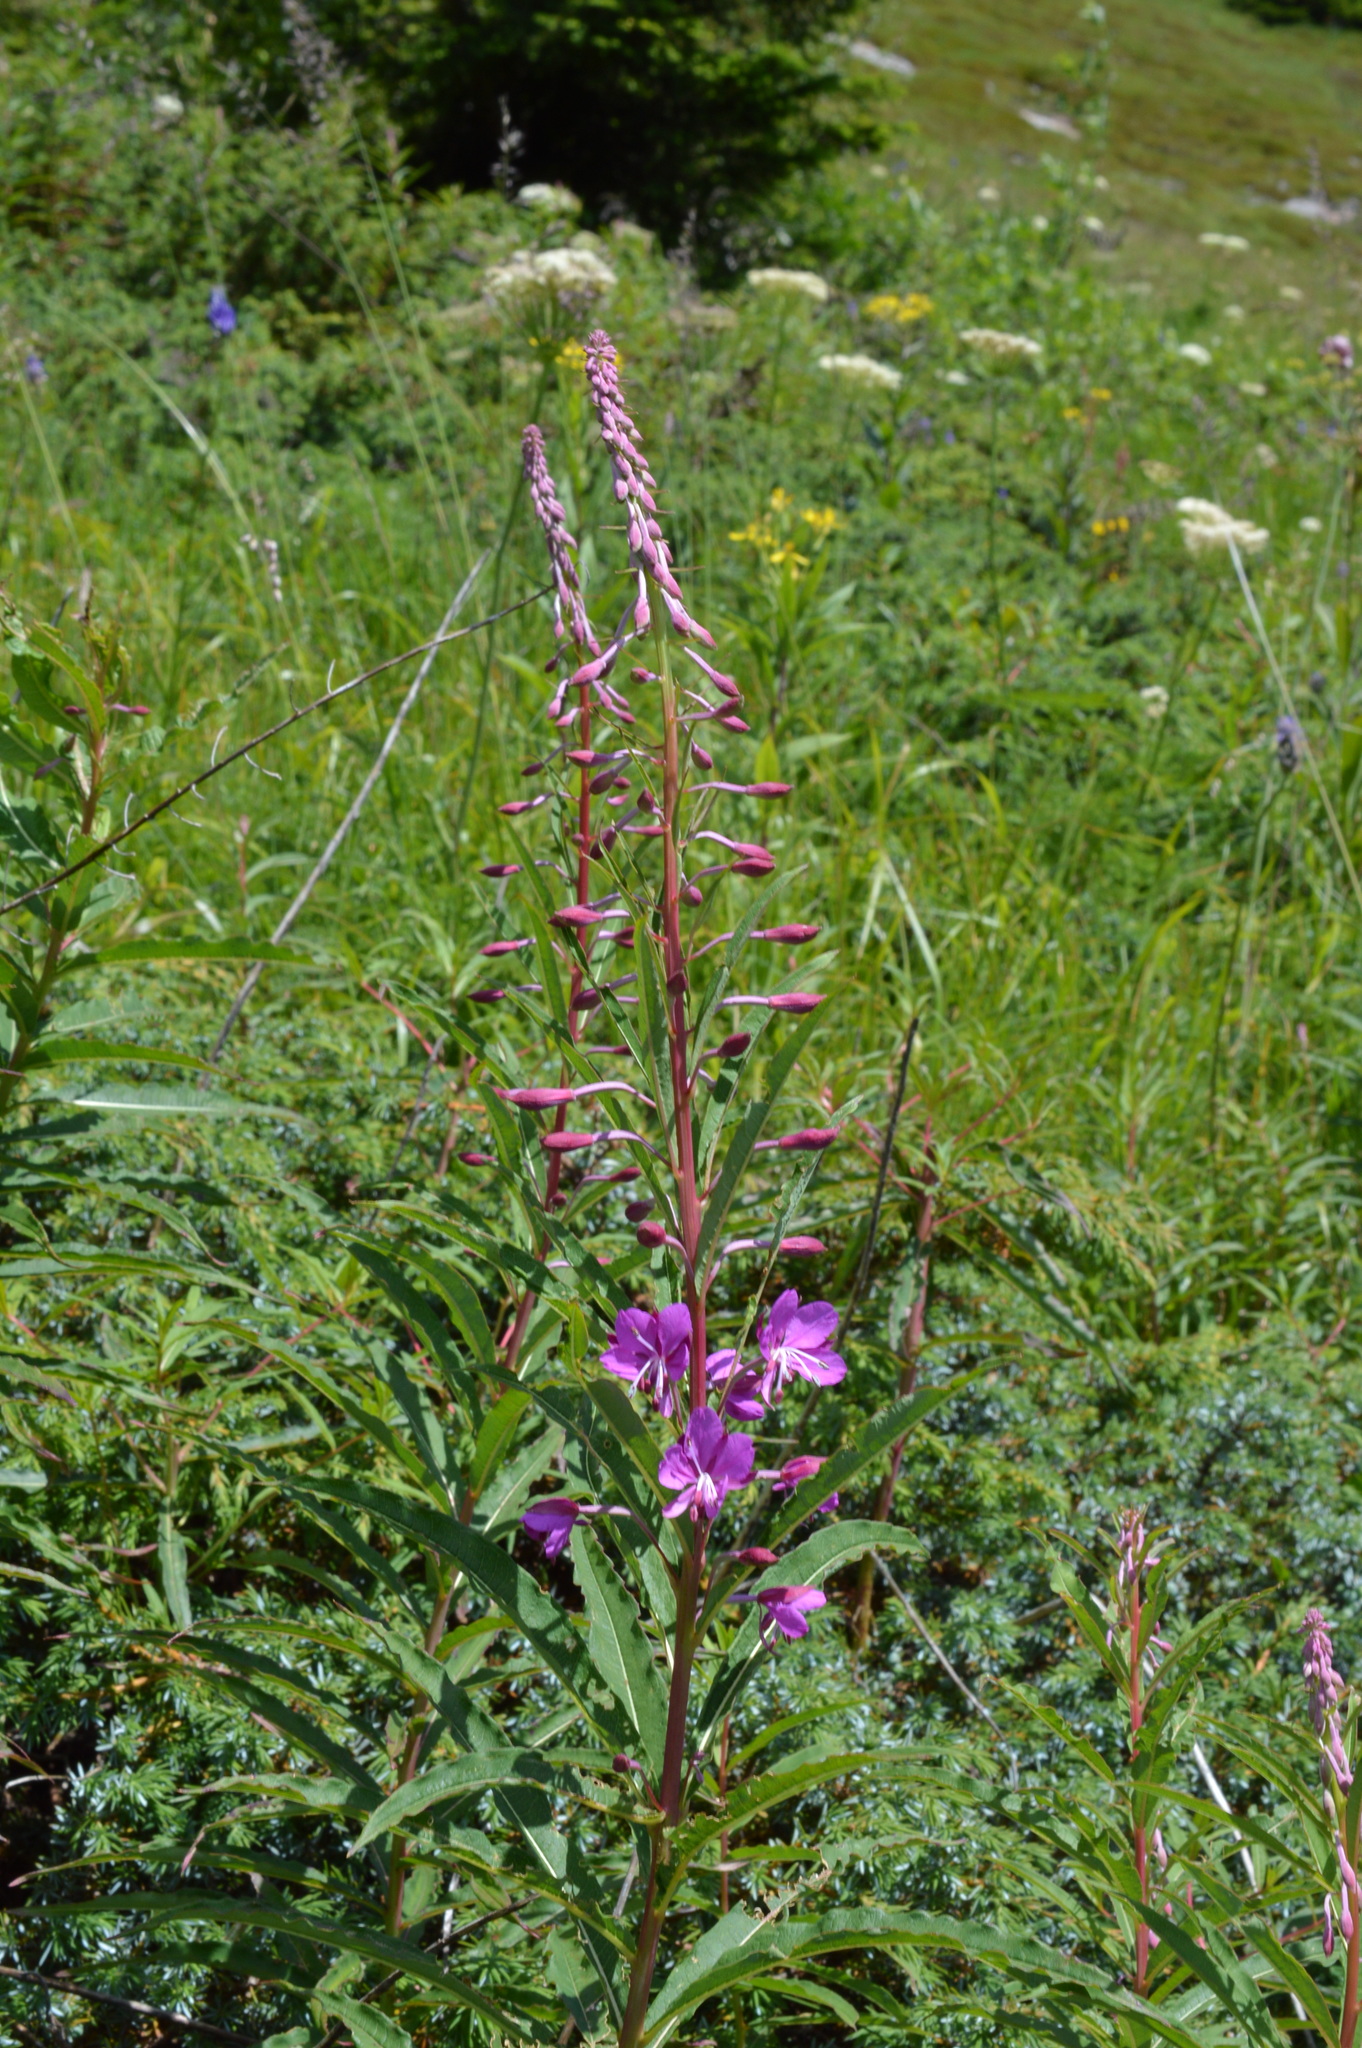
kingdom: Plantae
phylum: Tracheophyta
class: Magnoliopsida
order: Myrtales
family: Onagraceae
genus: Chamaenerion
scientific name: Chamaenerion angustifolium
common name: Fireweed
